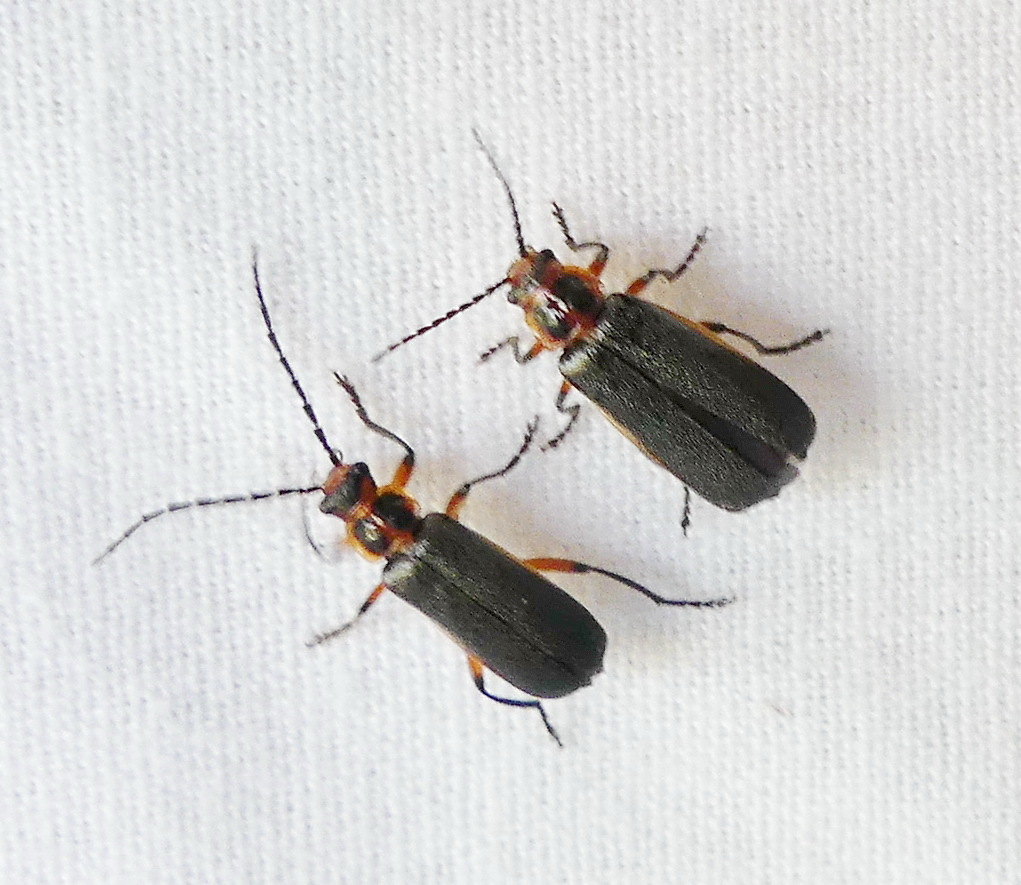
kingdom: Animalia
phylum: Arthropoda
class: Insecta
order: Coleoptera
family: Cantharidae
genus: Atalantycha
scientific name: Atalantycha bilineata
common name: Two-lined leatherwing
